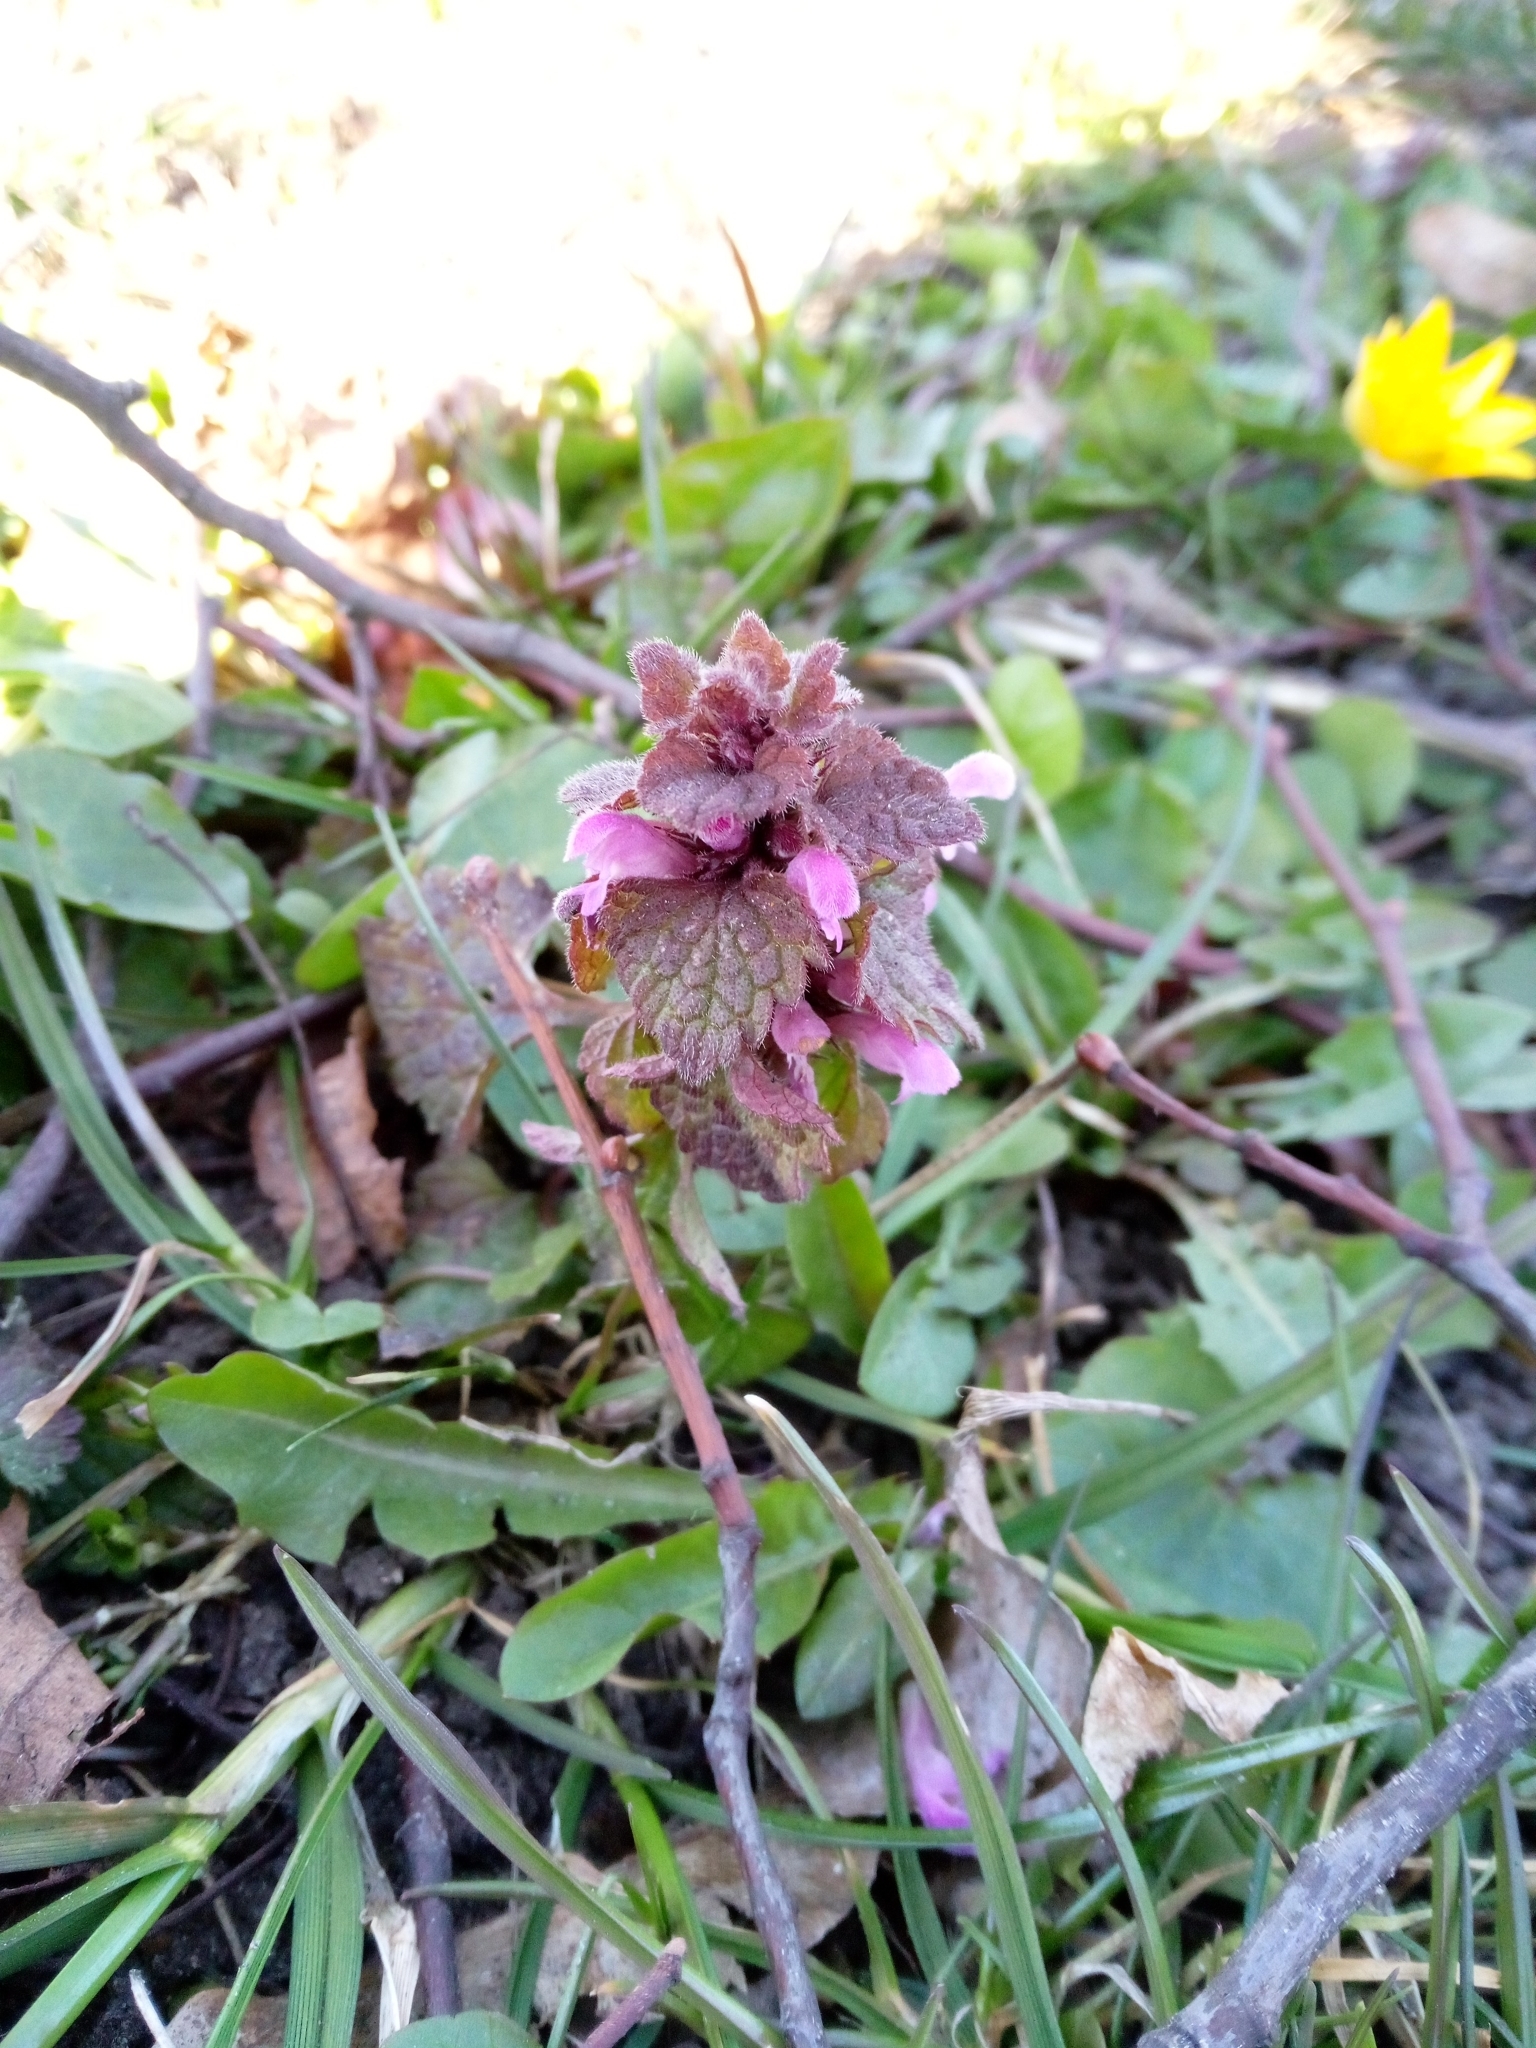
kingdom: Plantae
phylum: Tracheophyta
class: Magnoliopsida
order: Lamiales
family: Lamiaceae
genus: Lamium
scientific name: Lamium purpureum
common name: Red dead-nettle
